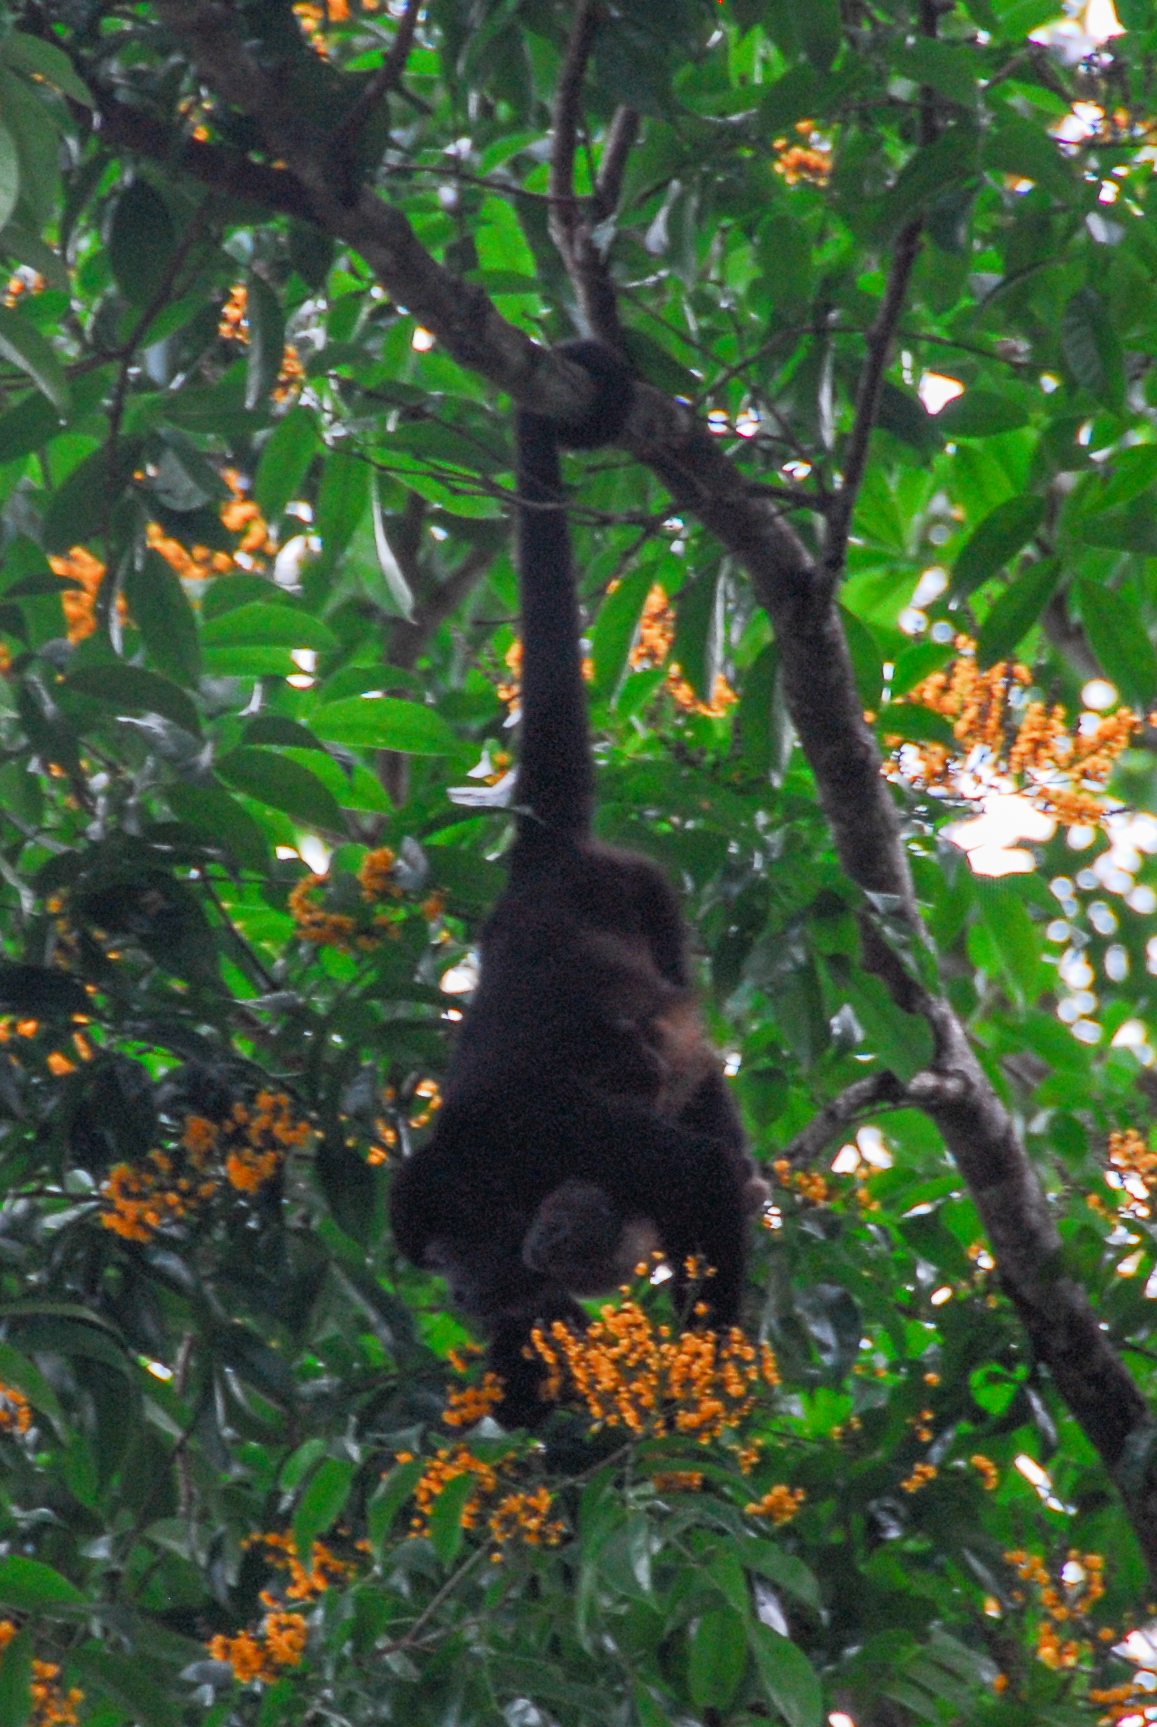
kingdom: Animalia
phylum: Chordata
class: Mammalia
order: Primates
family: Atelidae
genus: Alouatta
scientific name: Alouatta palliata
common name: Mantled howler
